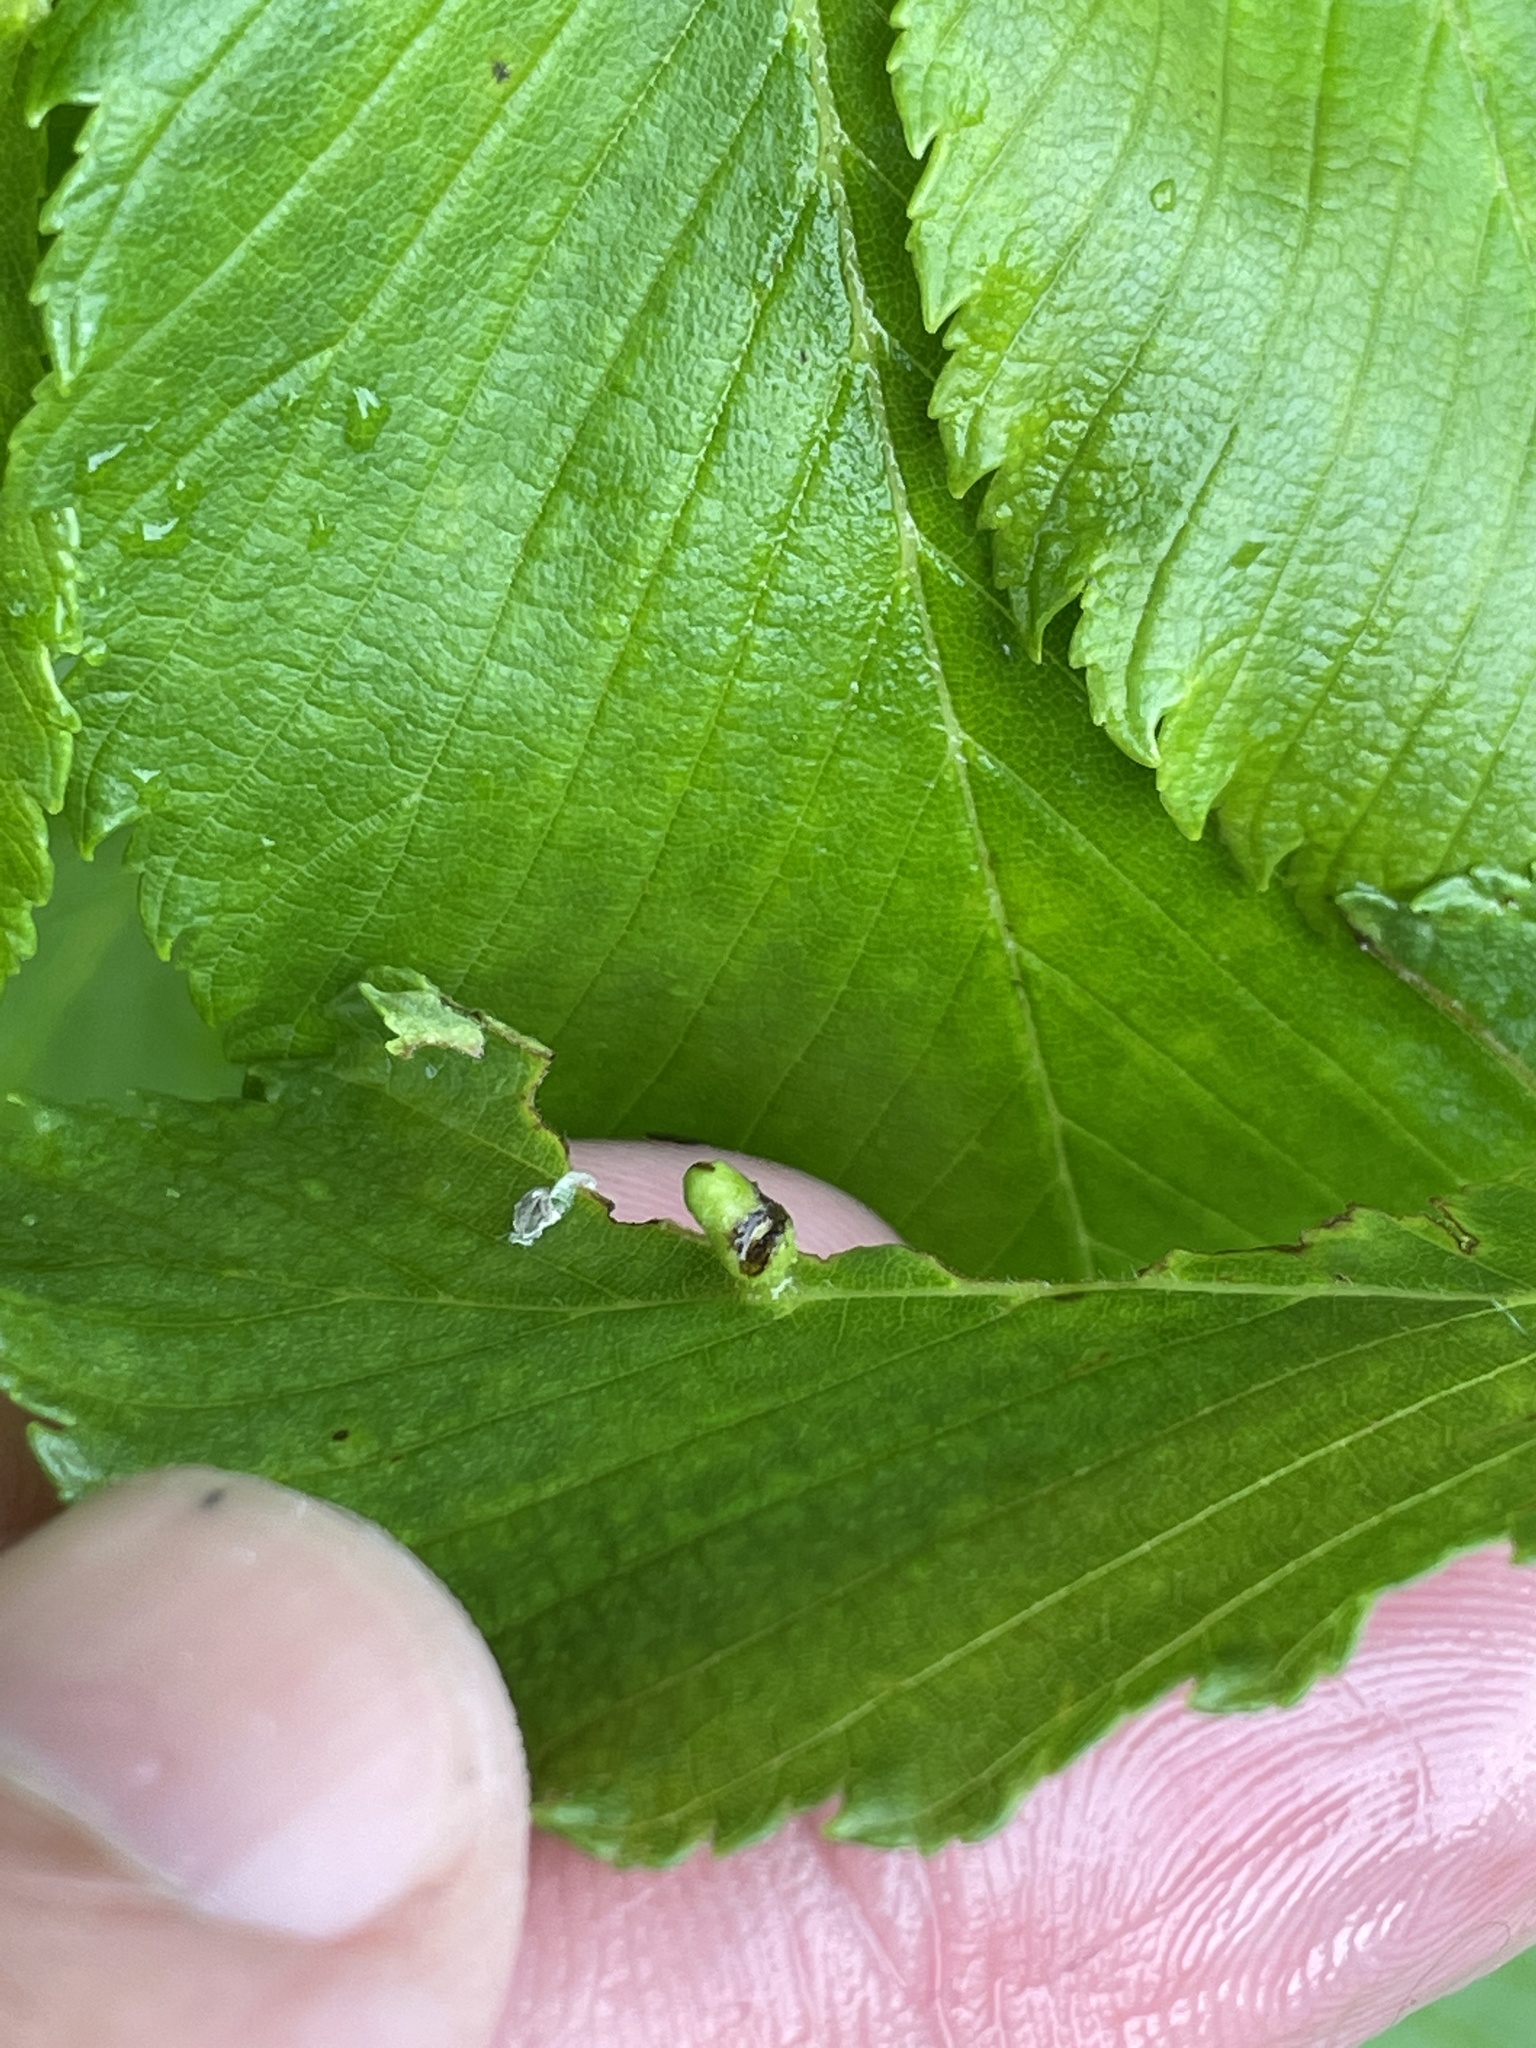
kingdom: Animalia
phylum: Arthropoda
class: Arachnida
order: Trombidiformes
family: Eriophyidae
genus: Aceria
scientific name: Aceria
